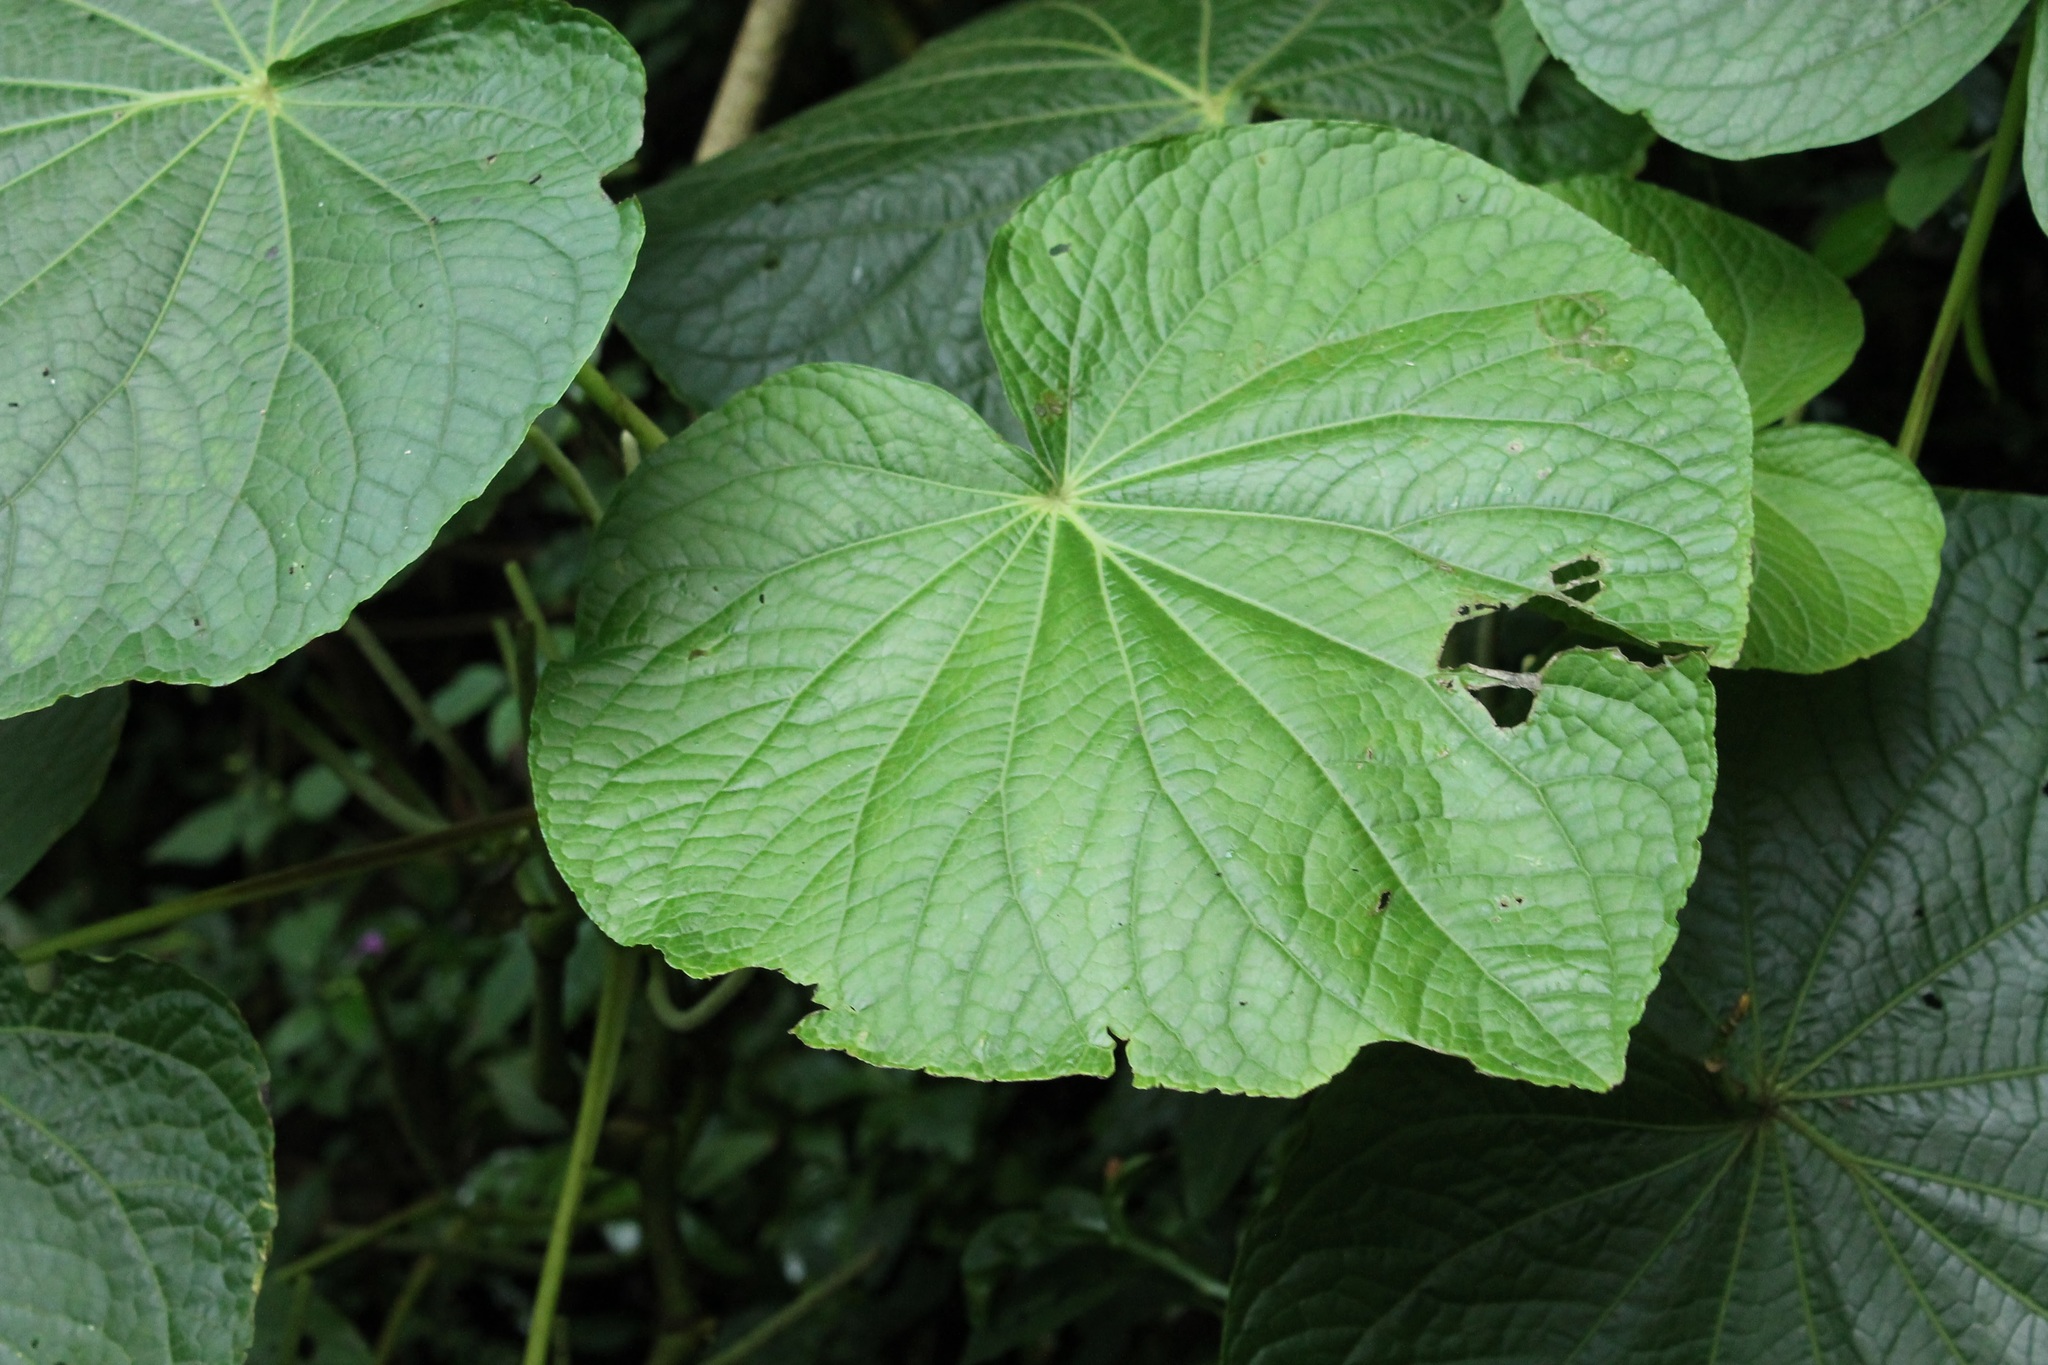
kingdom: Plantae
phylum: Tracheophyta
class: Magnoliopsida
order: Piperales
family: Piperaceae
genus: Piper
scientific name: Piper umbellatum
